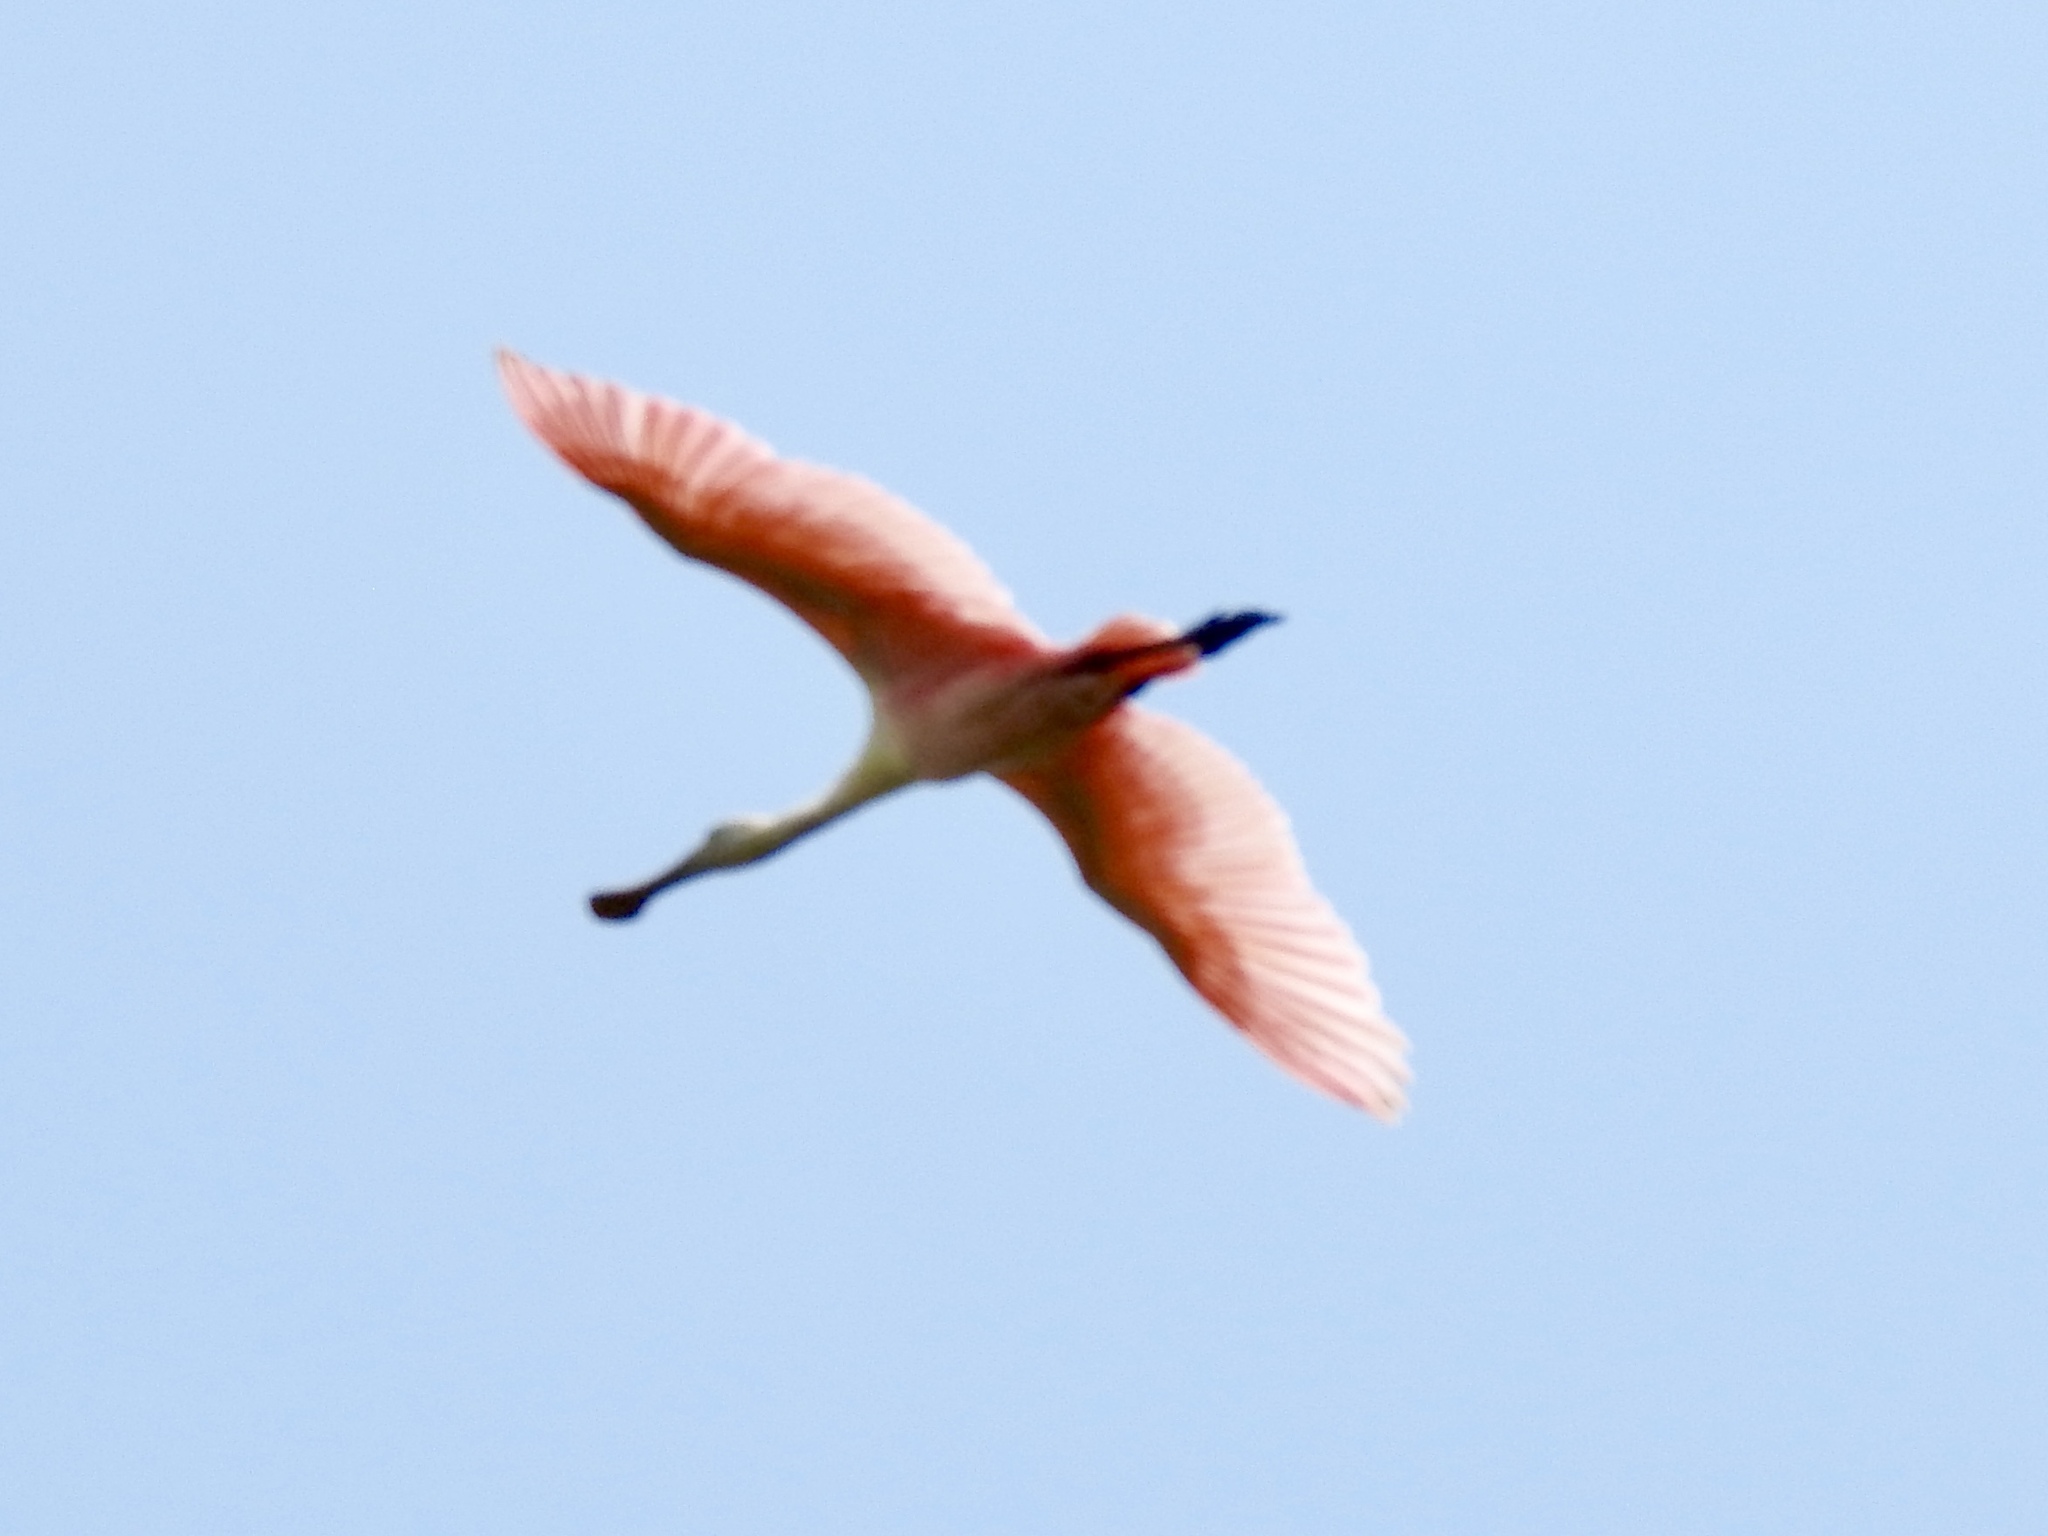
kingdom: Animalia
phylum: Chordata
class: Aves
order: Pelecaniformes
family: Threskiornithidae
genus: Platalea
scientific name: Platalea ajaja
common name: Roseate spoonbill
